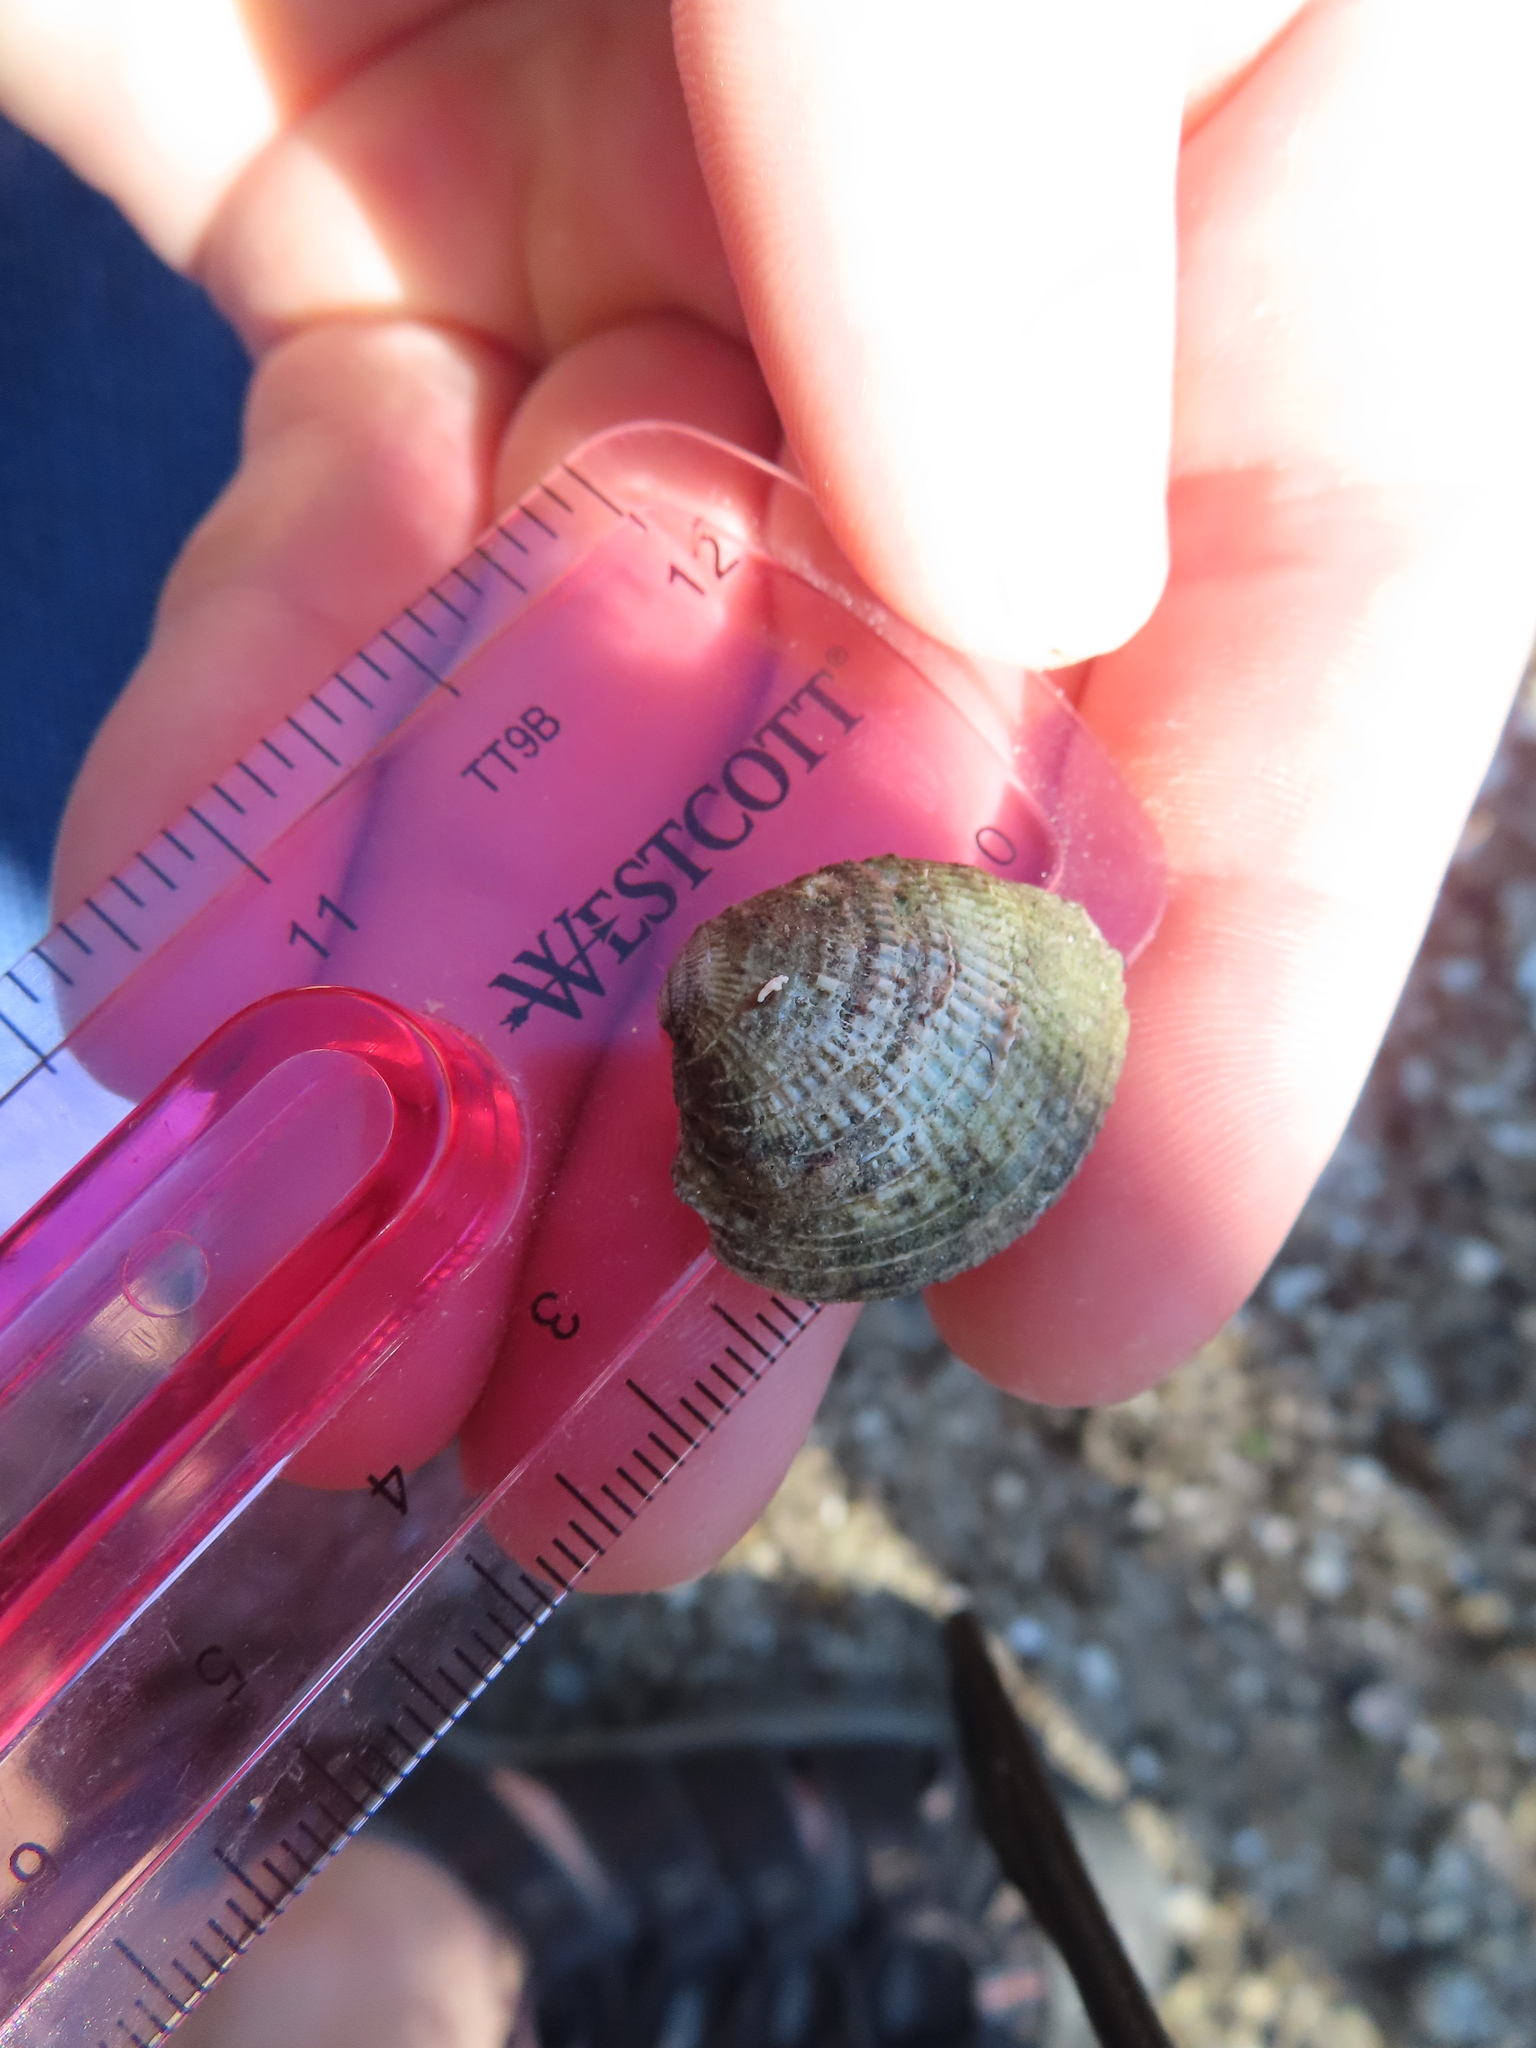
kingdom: Animalia
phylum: Mollusca
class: Bivalvia
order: Venerida
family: Veneridae
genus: Chione
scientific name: Chione elevata
